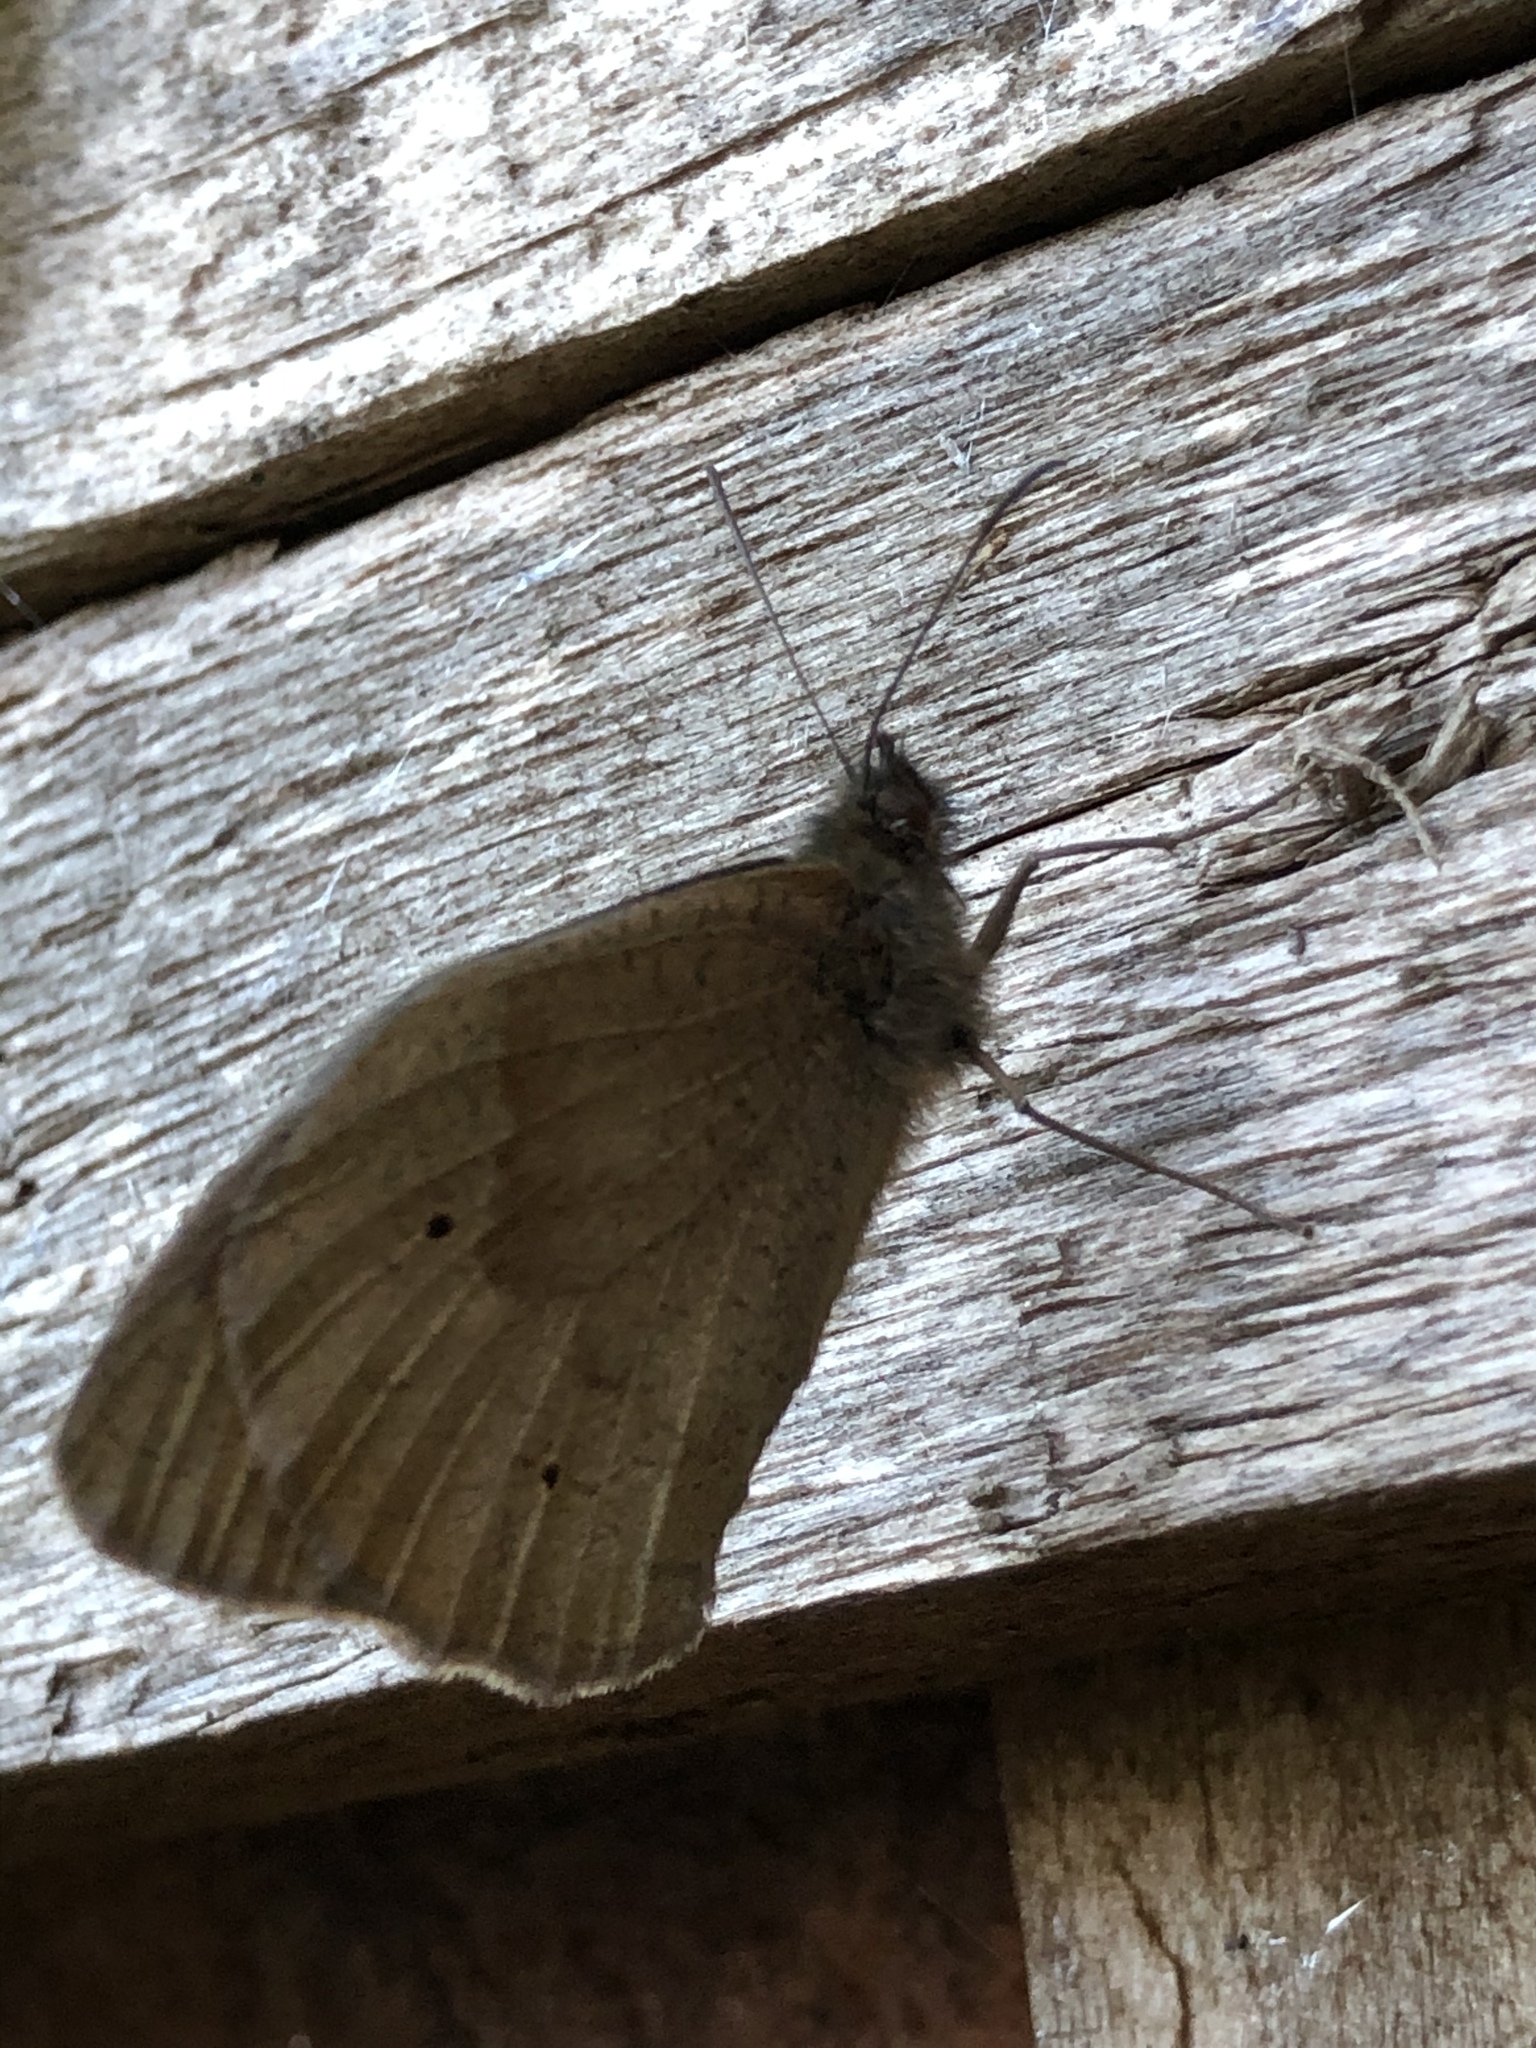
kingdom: Animalia
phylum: Arthropoda
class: Insecta
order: Lepidoptera
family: Nymphalidae
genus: Maniola
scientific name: Maniola jurtina
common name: Meadow brown
